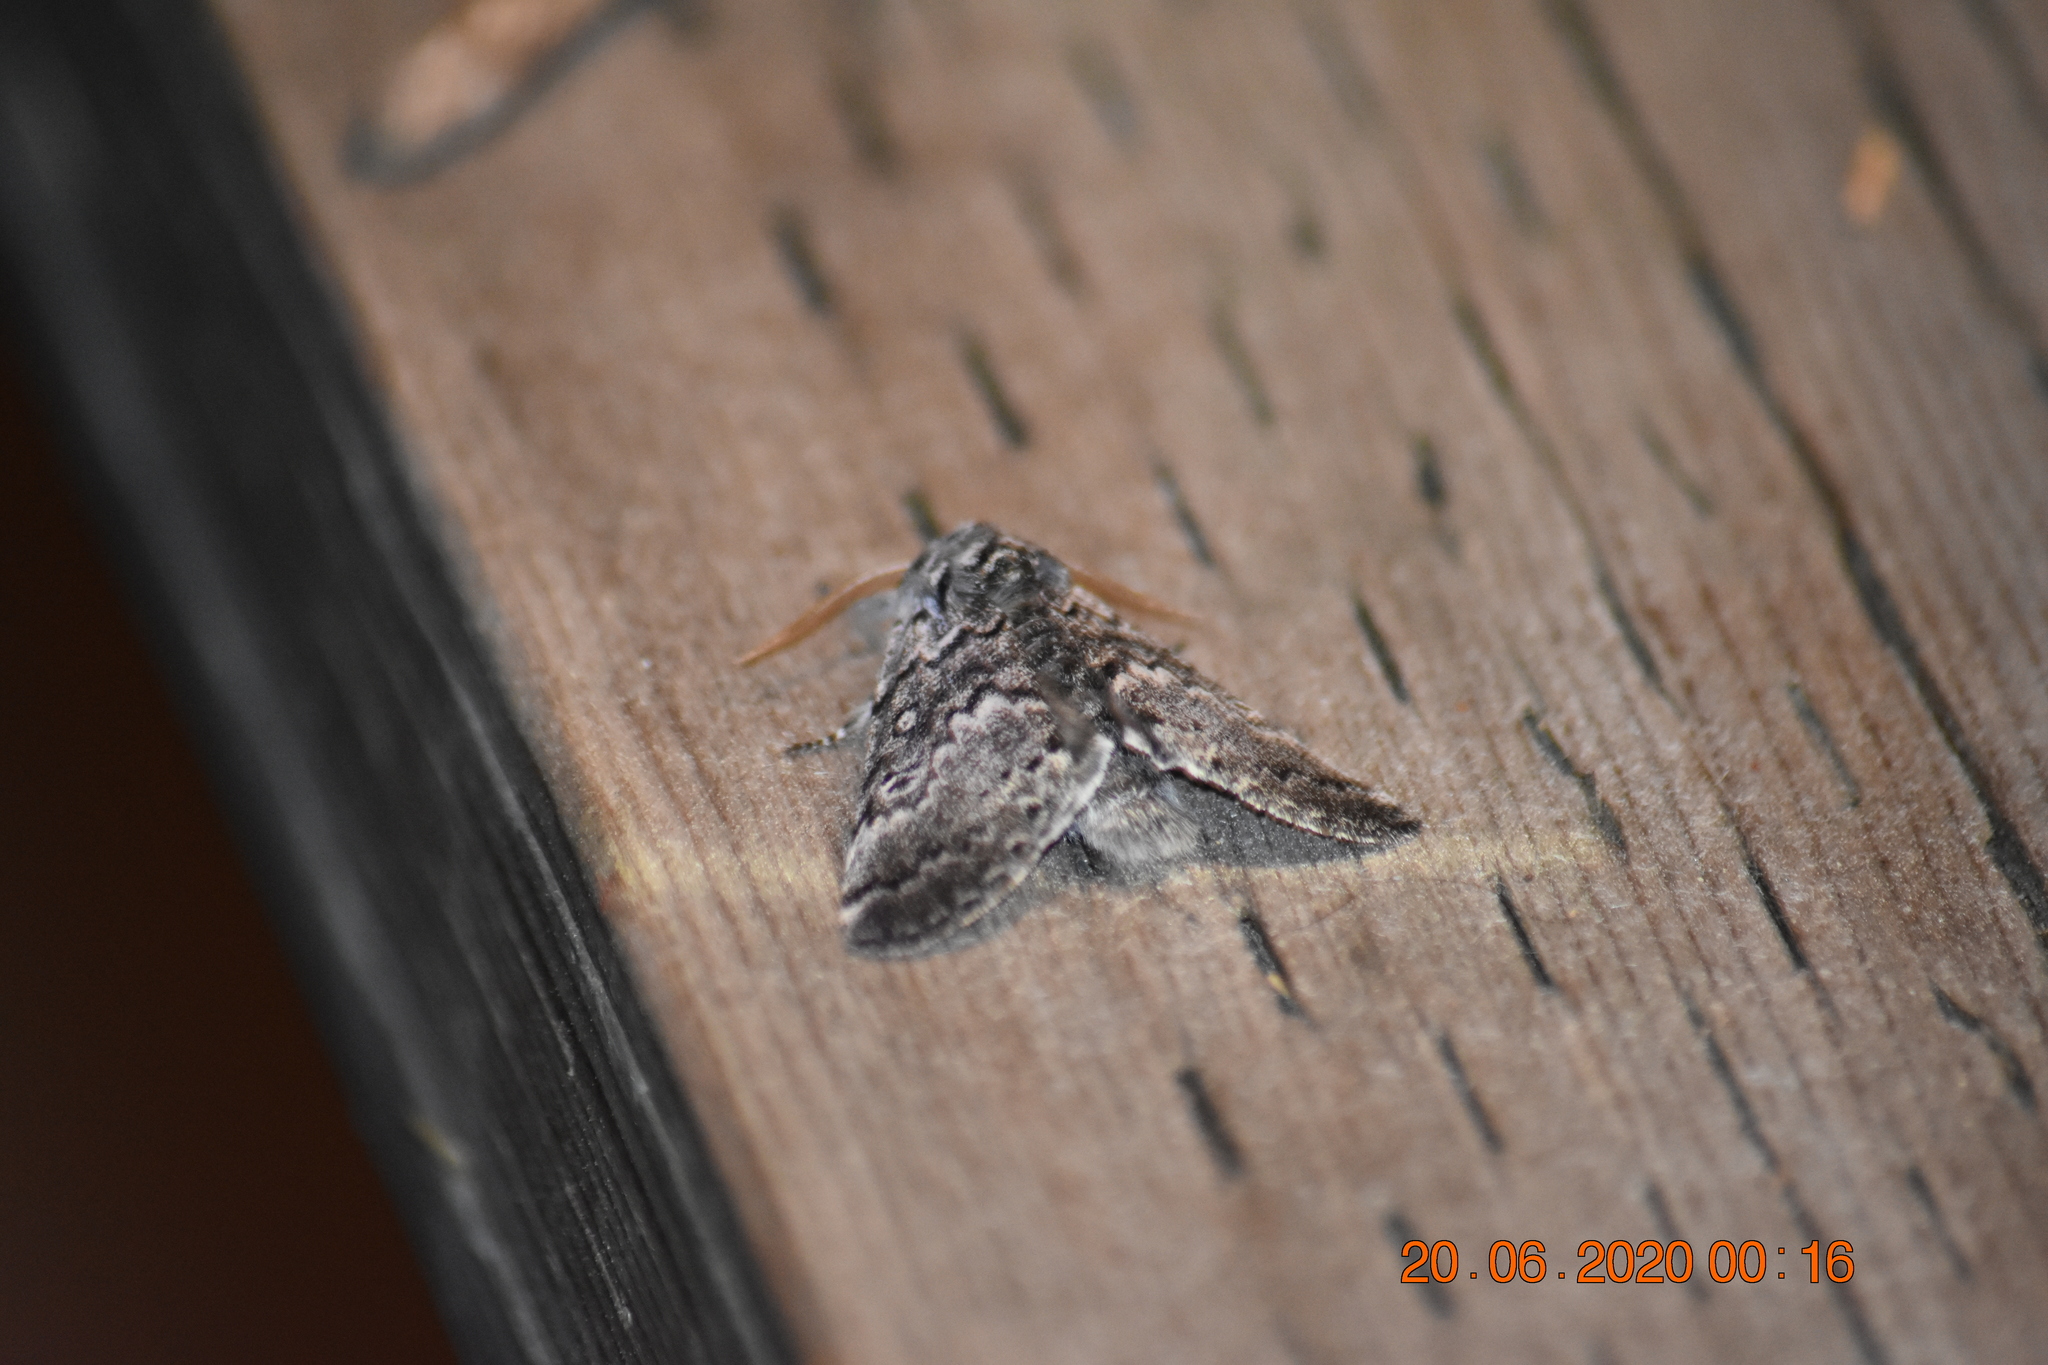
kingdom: Animalia
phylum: Arthropoda
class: Insecta
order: Lepidoptera
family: Noctuidae
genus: Colocasia
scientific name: Colocasia propinquilinea
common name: Close-banded demas
